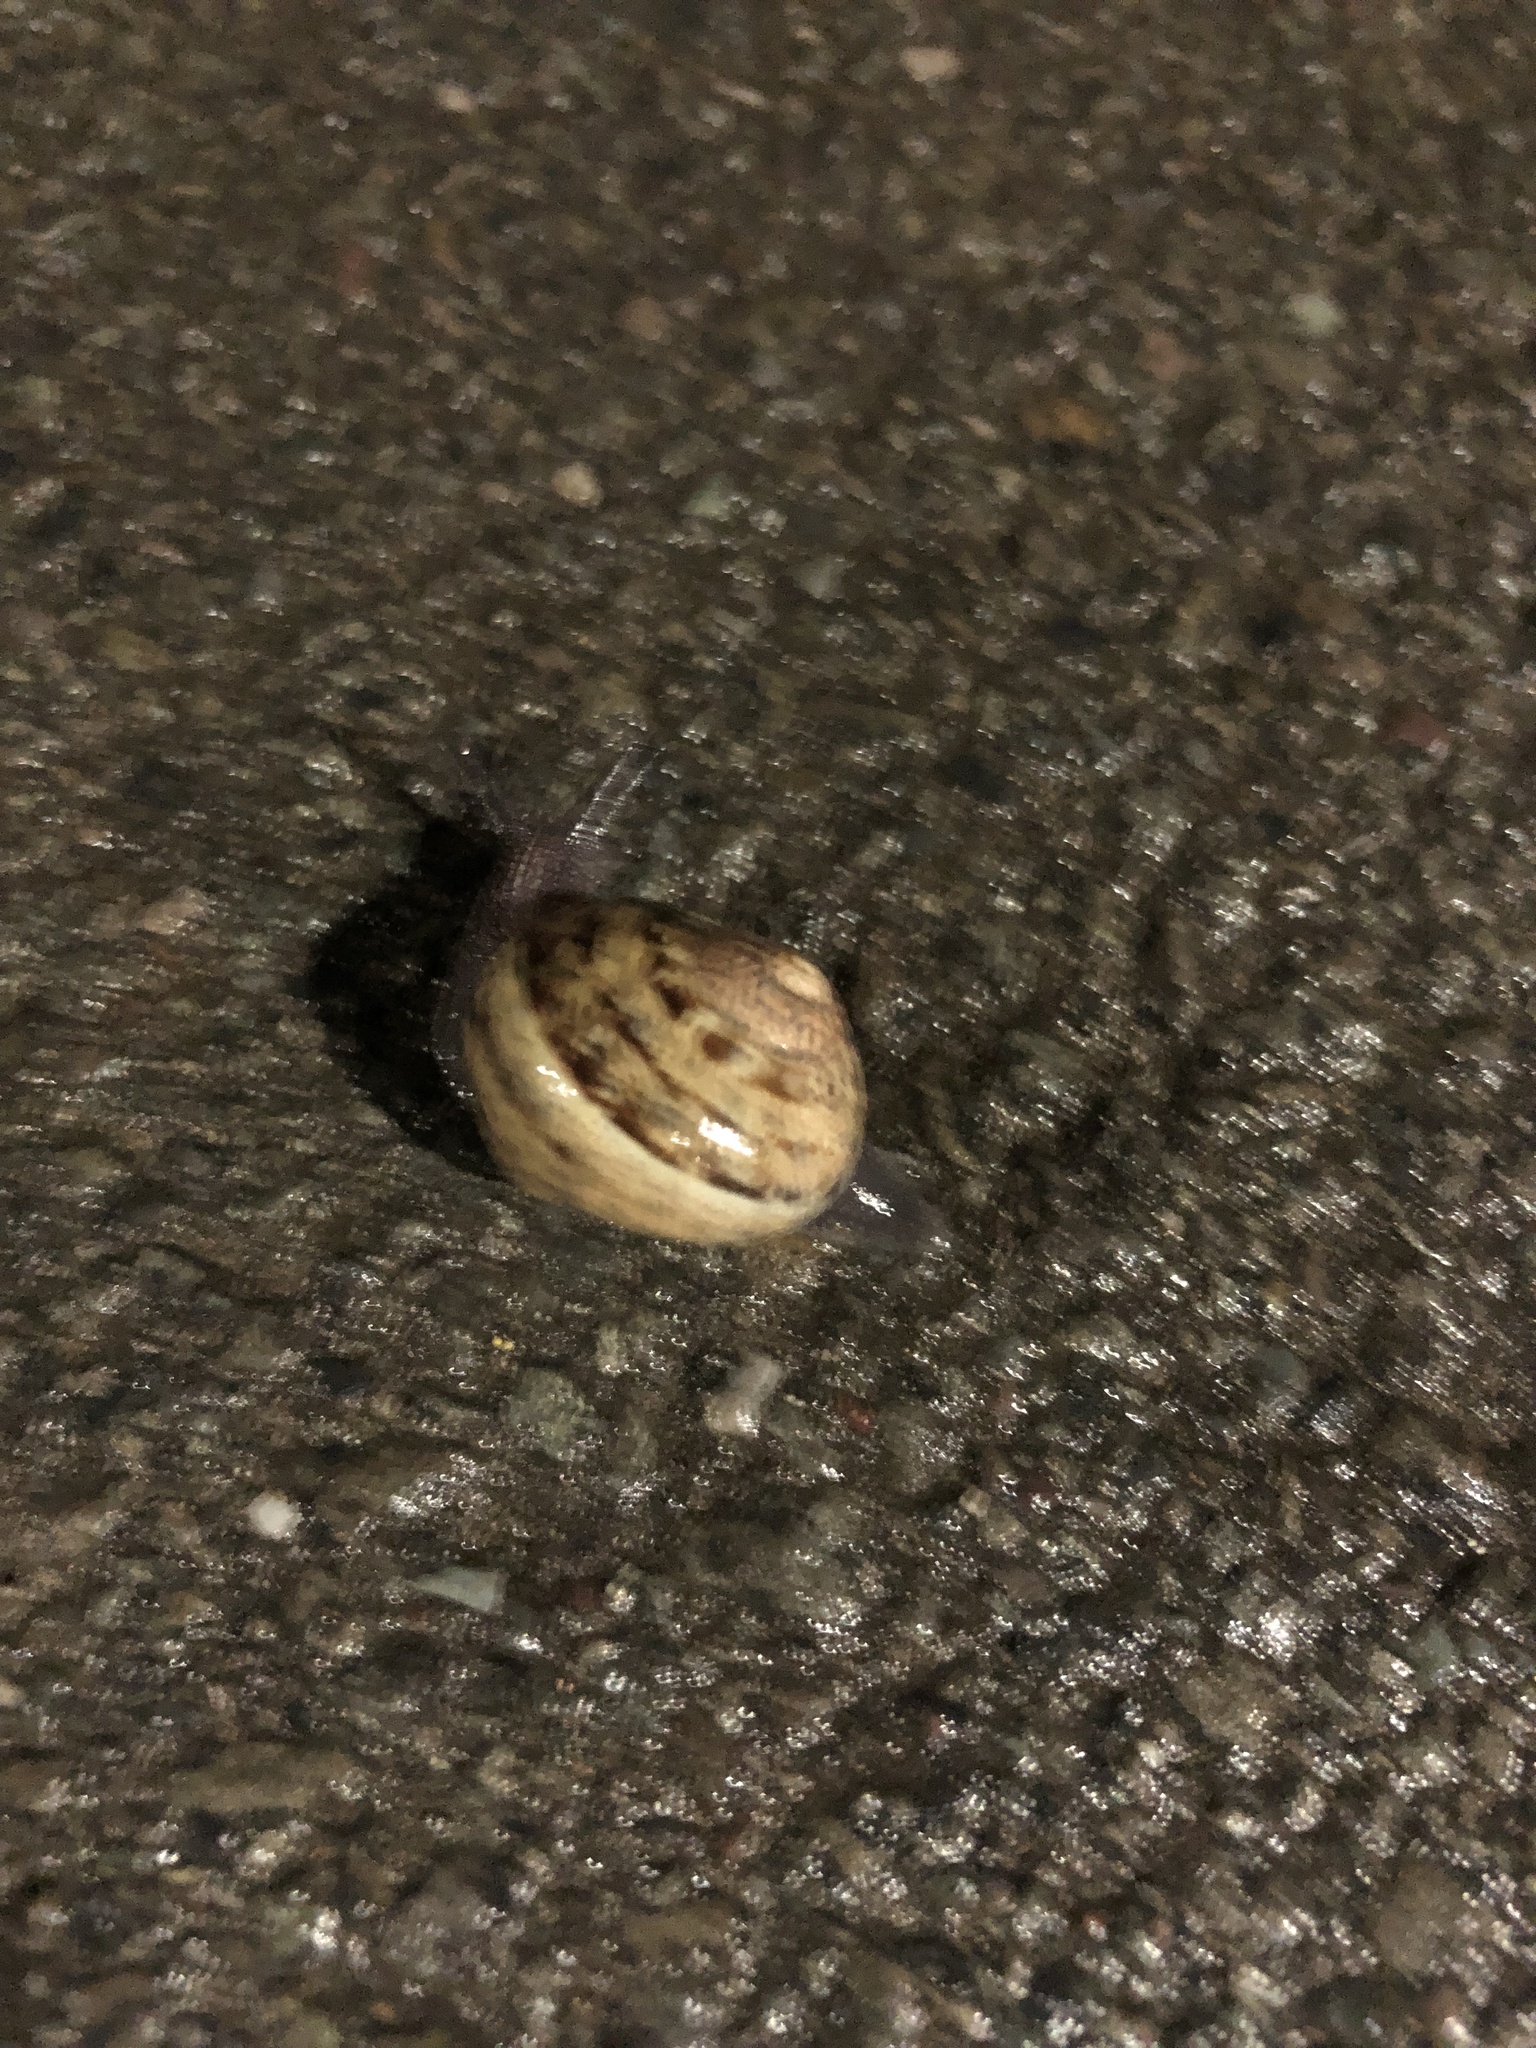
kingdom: Animalia
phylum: Mollusca
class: Gastropoda
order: Stylommatophora
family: Helicidae
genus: Cornu
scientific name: Cornu aspersum
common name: Brown garden snail
